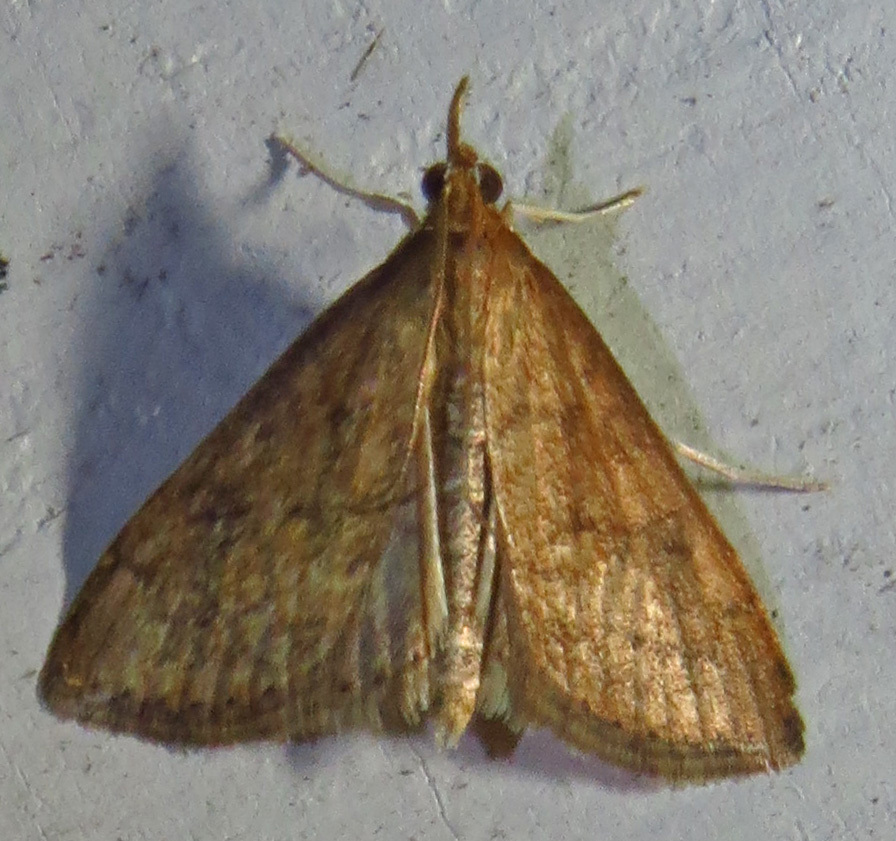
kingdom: Animalia
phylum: Arthropoda
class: Insecta
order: Lepidoptera
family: Crambidae
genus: Udea
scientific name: Udea rubigalis
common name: Celery leaftier moth
